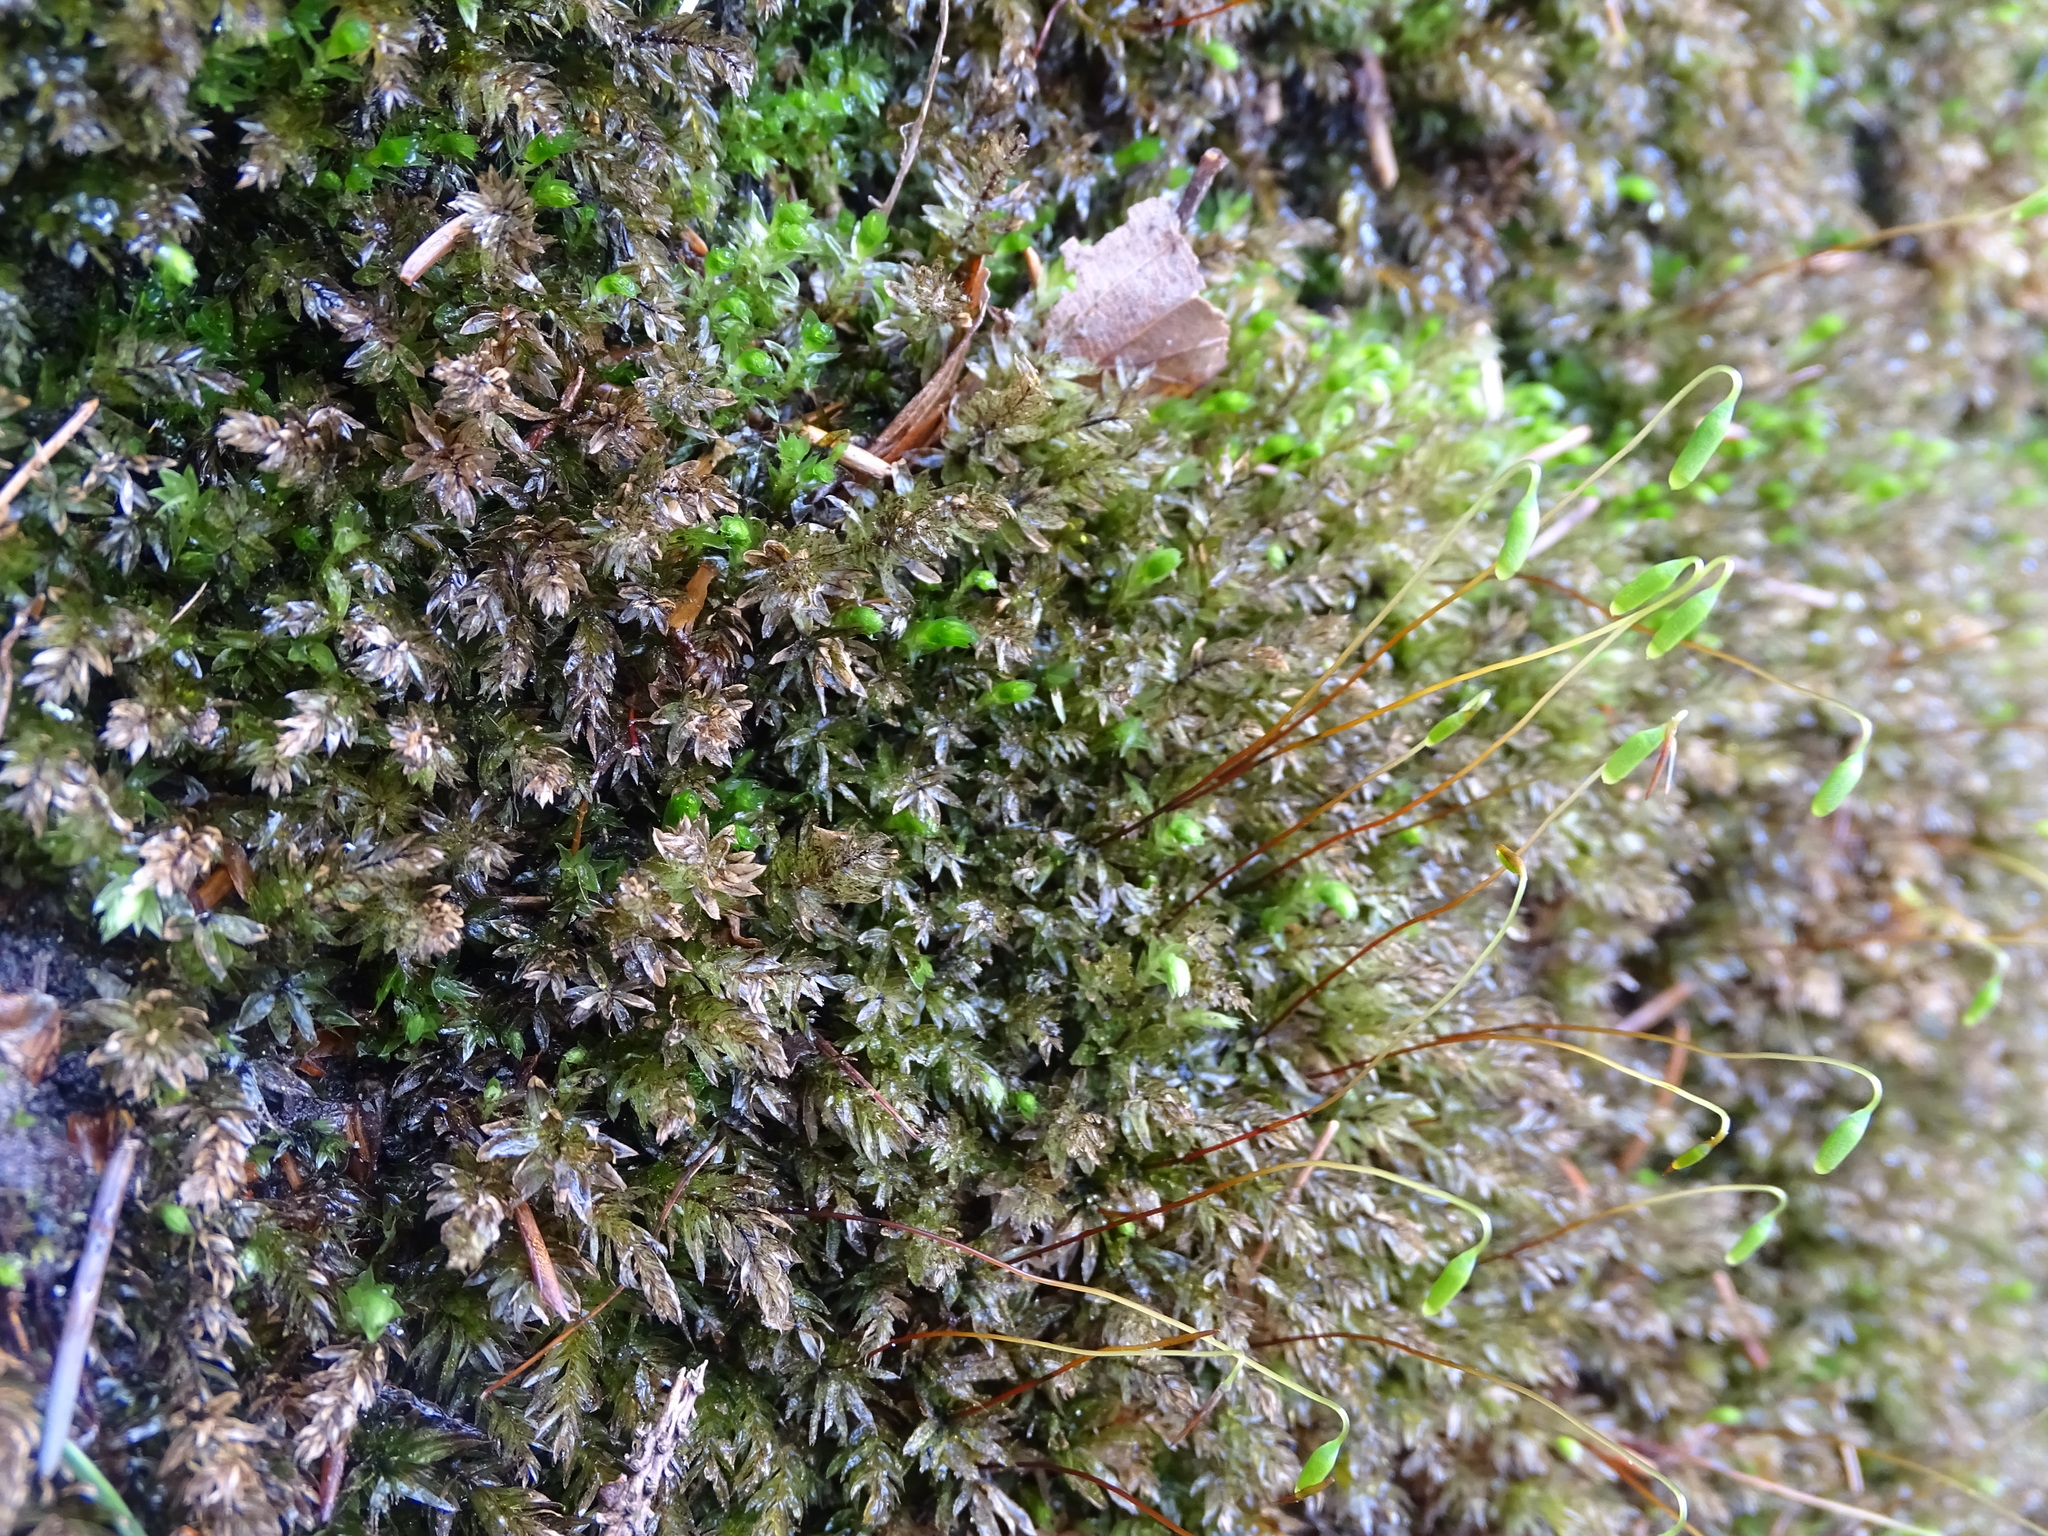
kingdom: Plantae
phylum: Bryophyta
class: Bryopsida
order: Bryales
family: Mniaceae
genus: Mnium
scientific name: Mnium hornum
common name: Swan's-neck leafy moss
